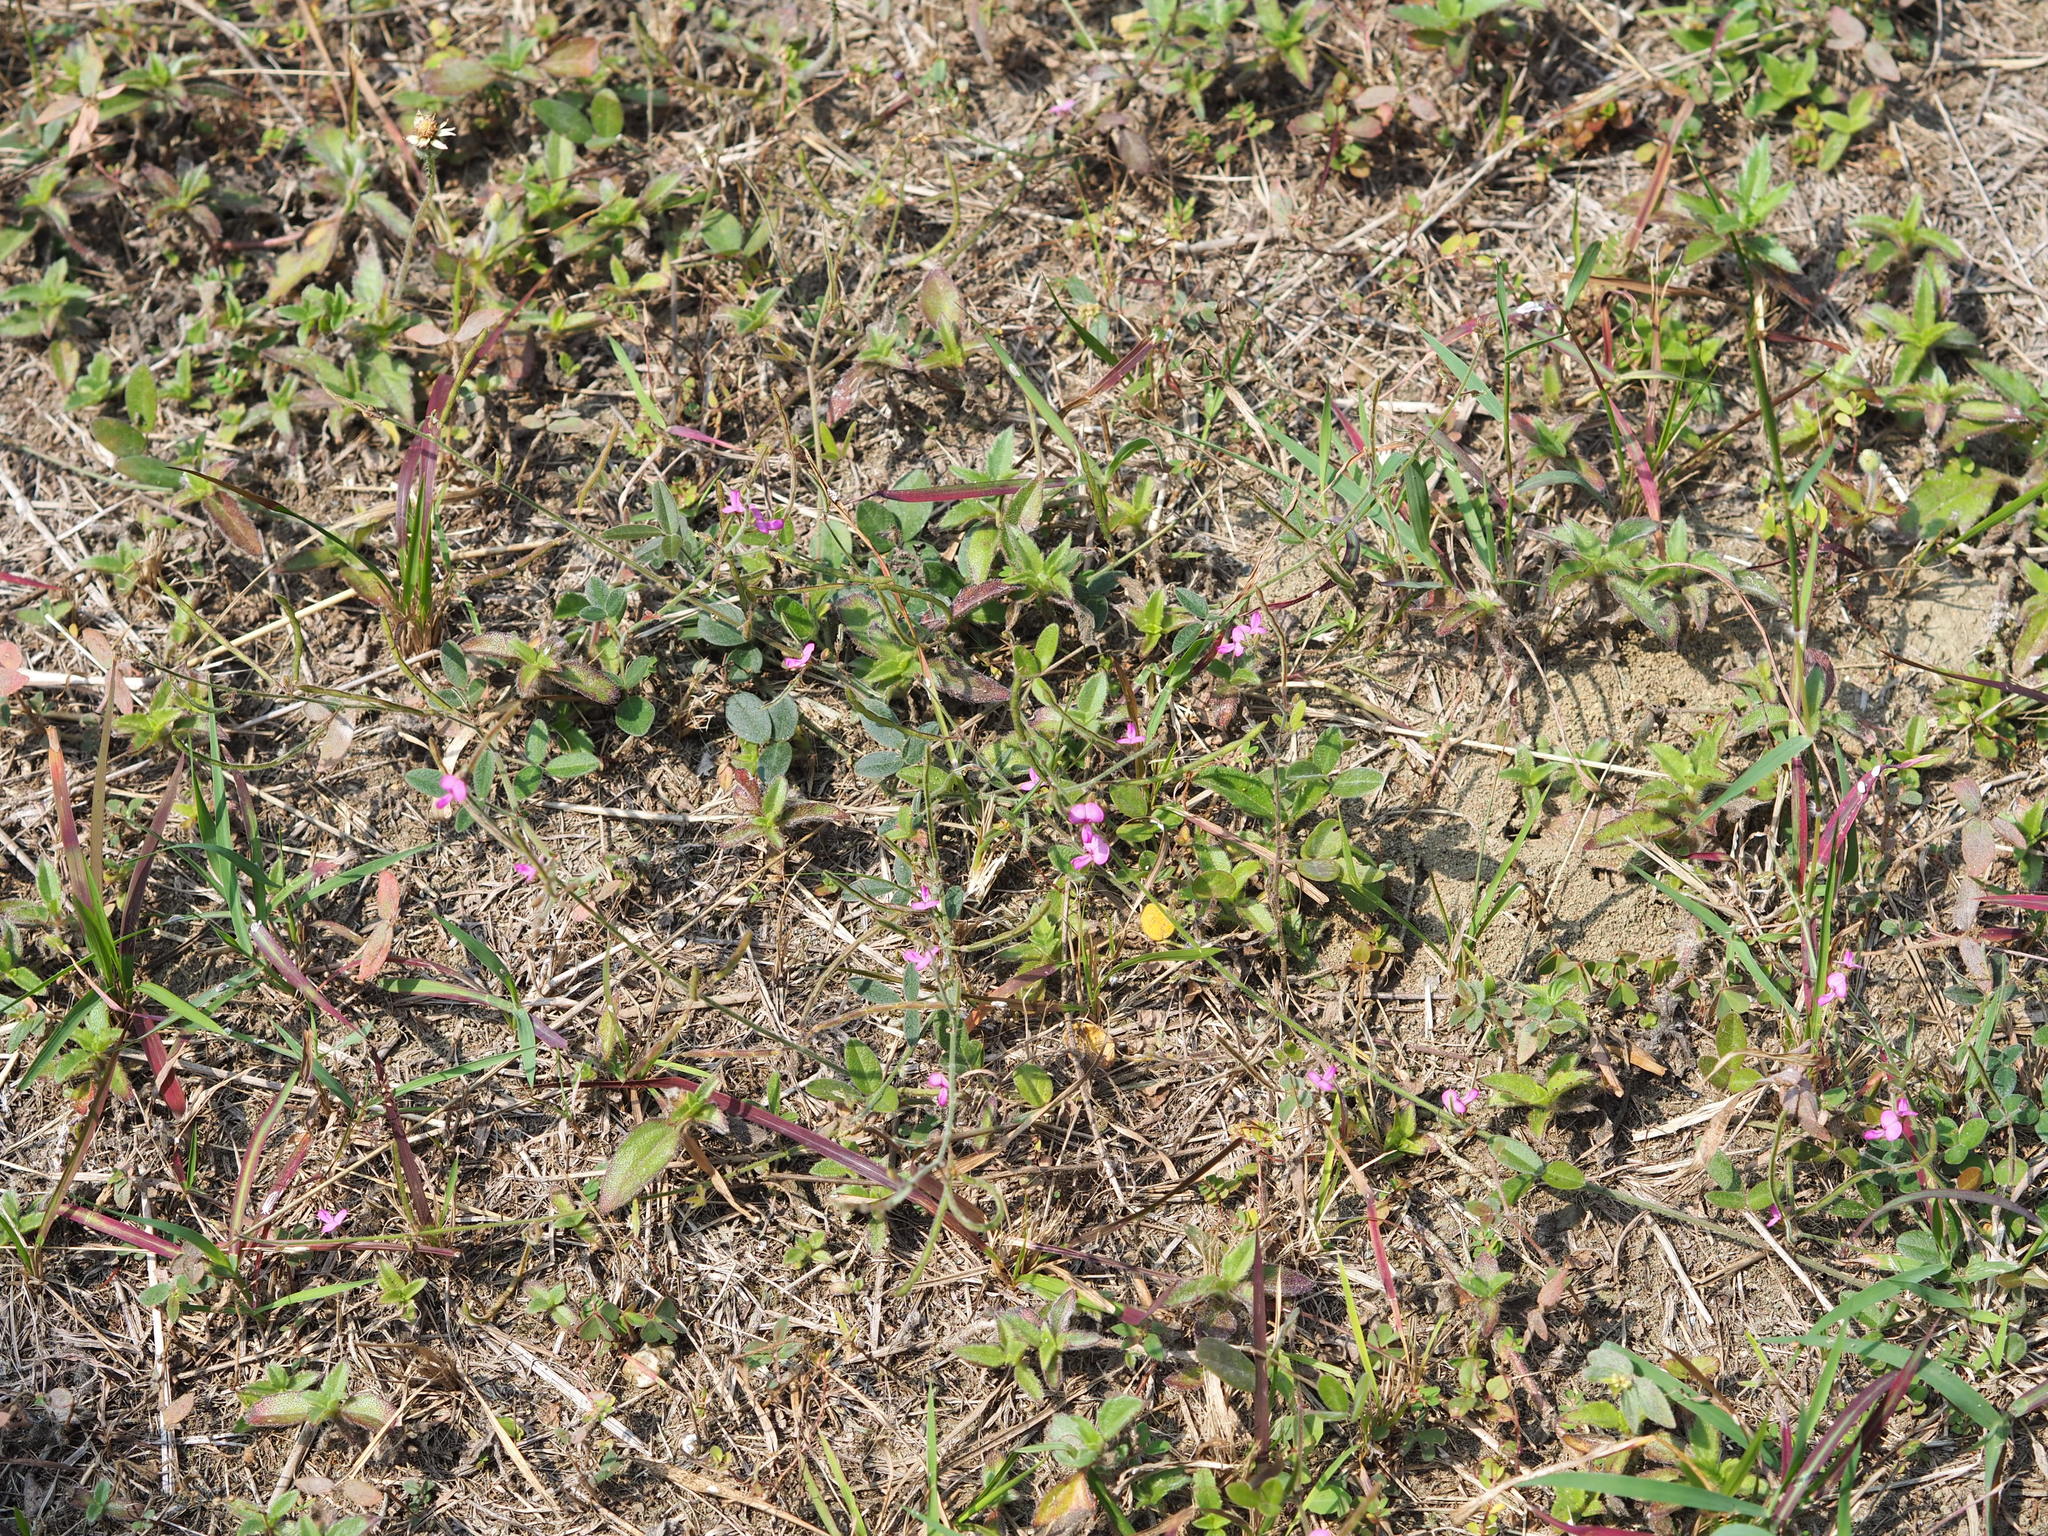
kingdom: Plantae
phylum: Tracheophyta
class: Magnoliopsida
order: Fabales
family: Fabaceae
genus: Desmodium
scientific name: Desmodium scorpiurus
